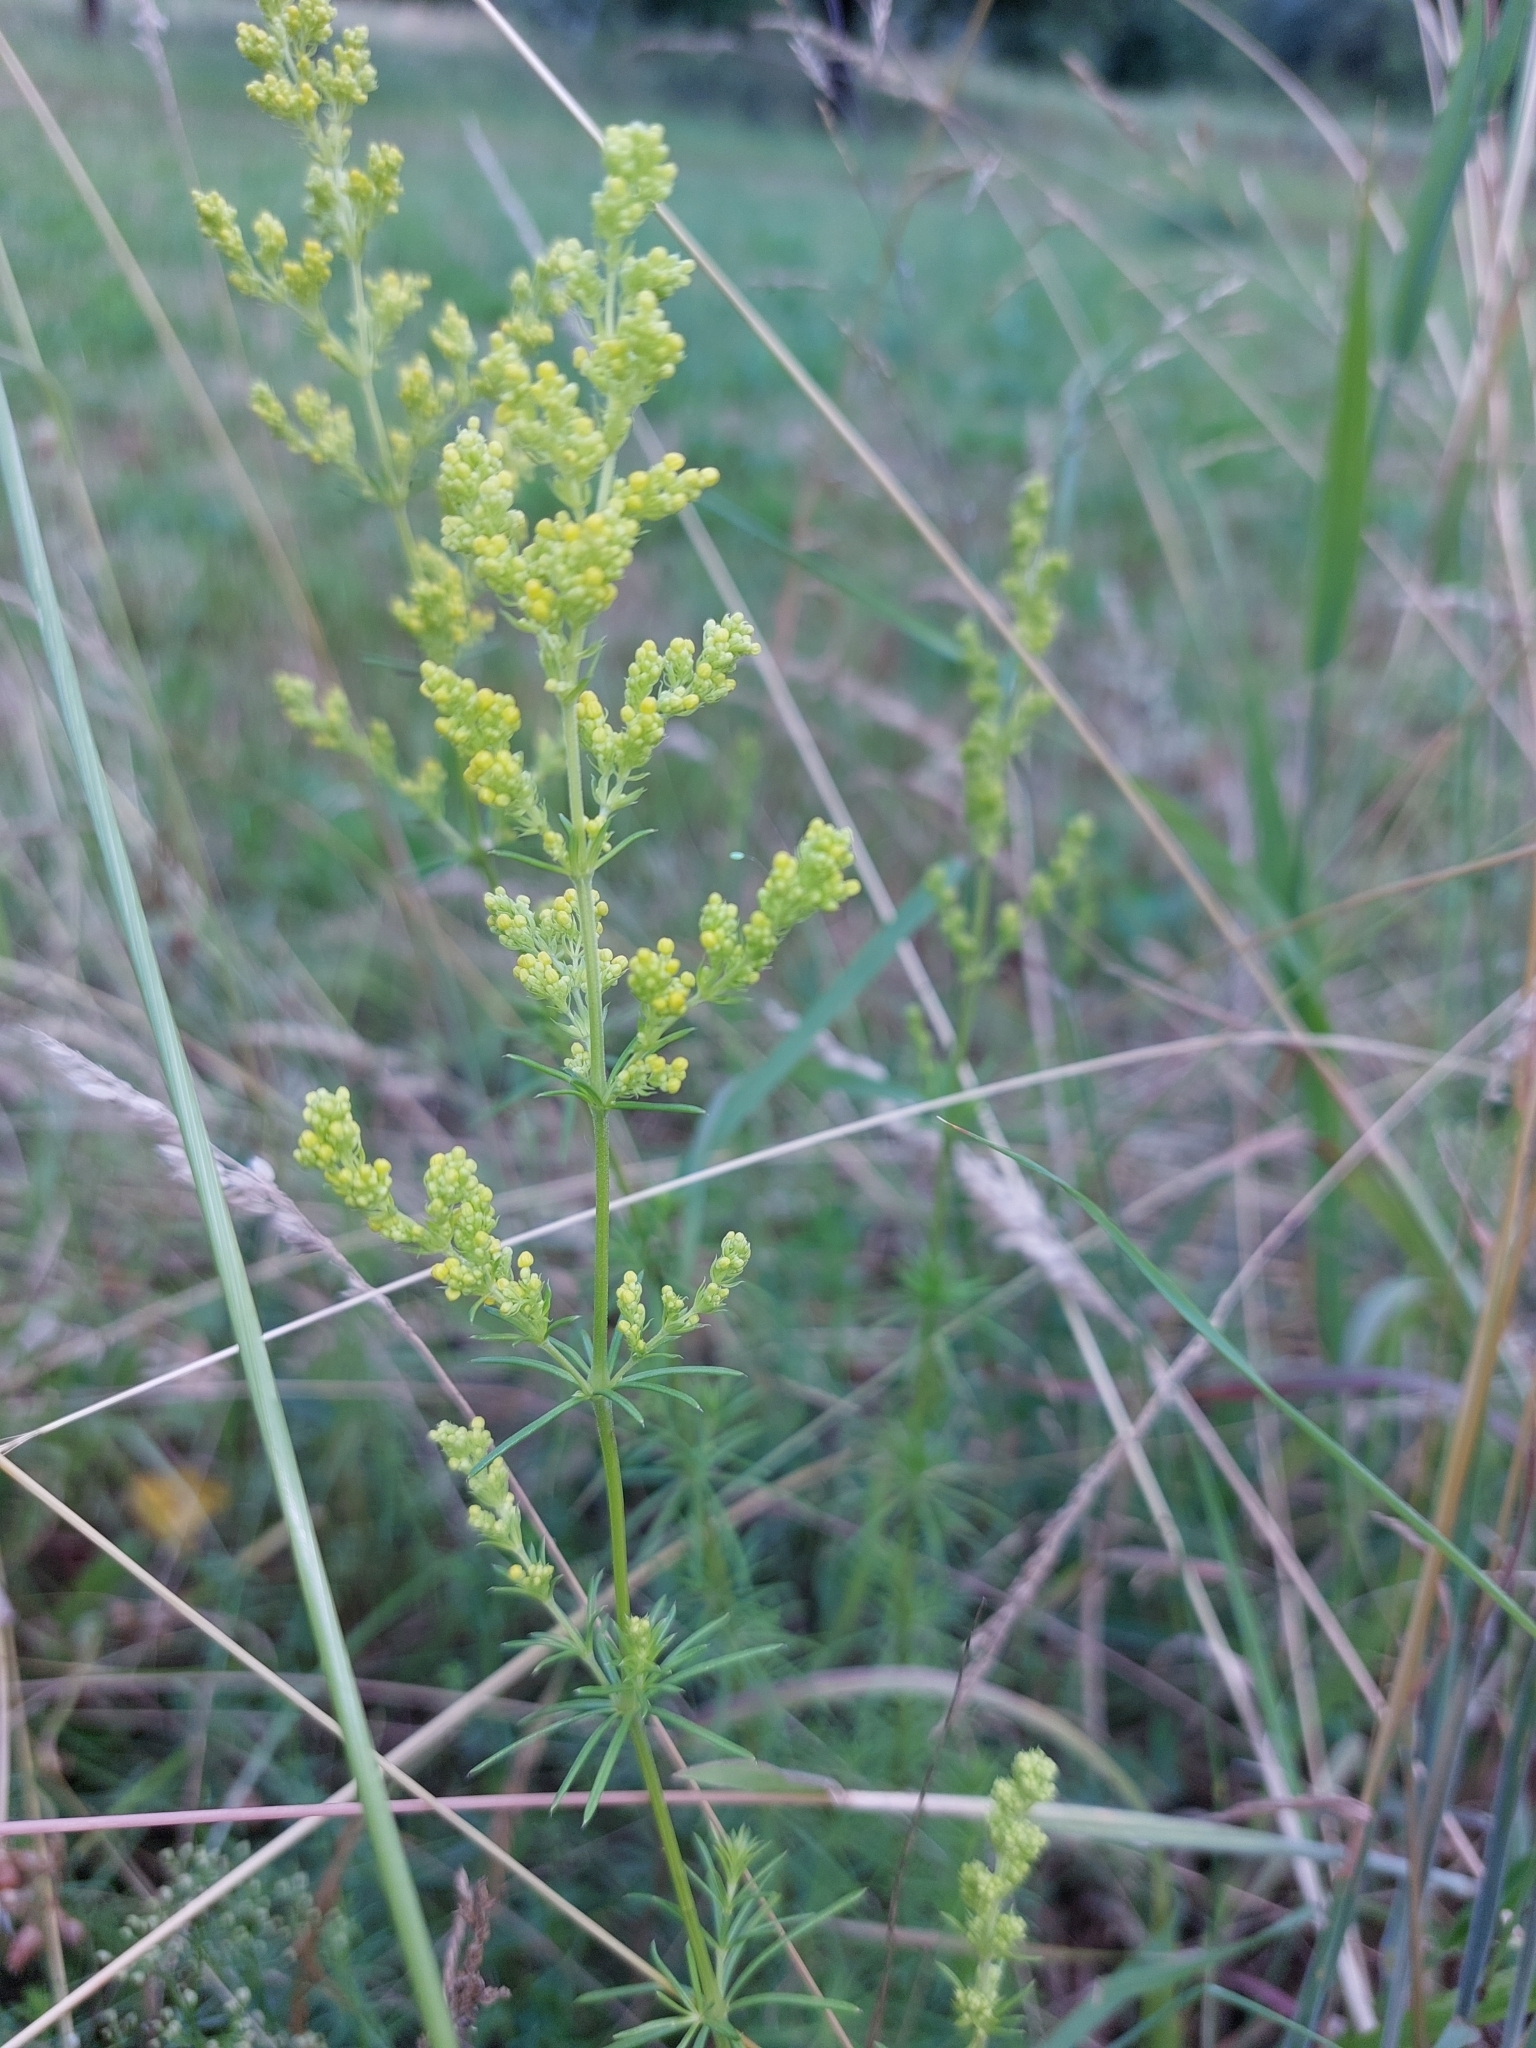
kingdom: Plantae
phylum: Tracheophyta
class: Magnoliopsida
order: Gentianales
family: Rubiaceae
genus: Galium
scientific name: Galium verum
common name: Lady's bedstraw
